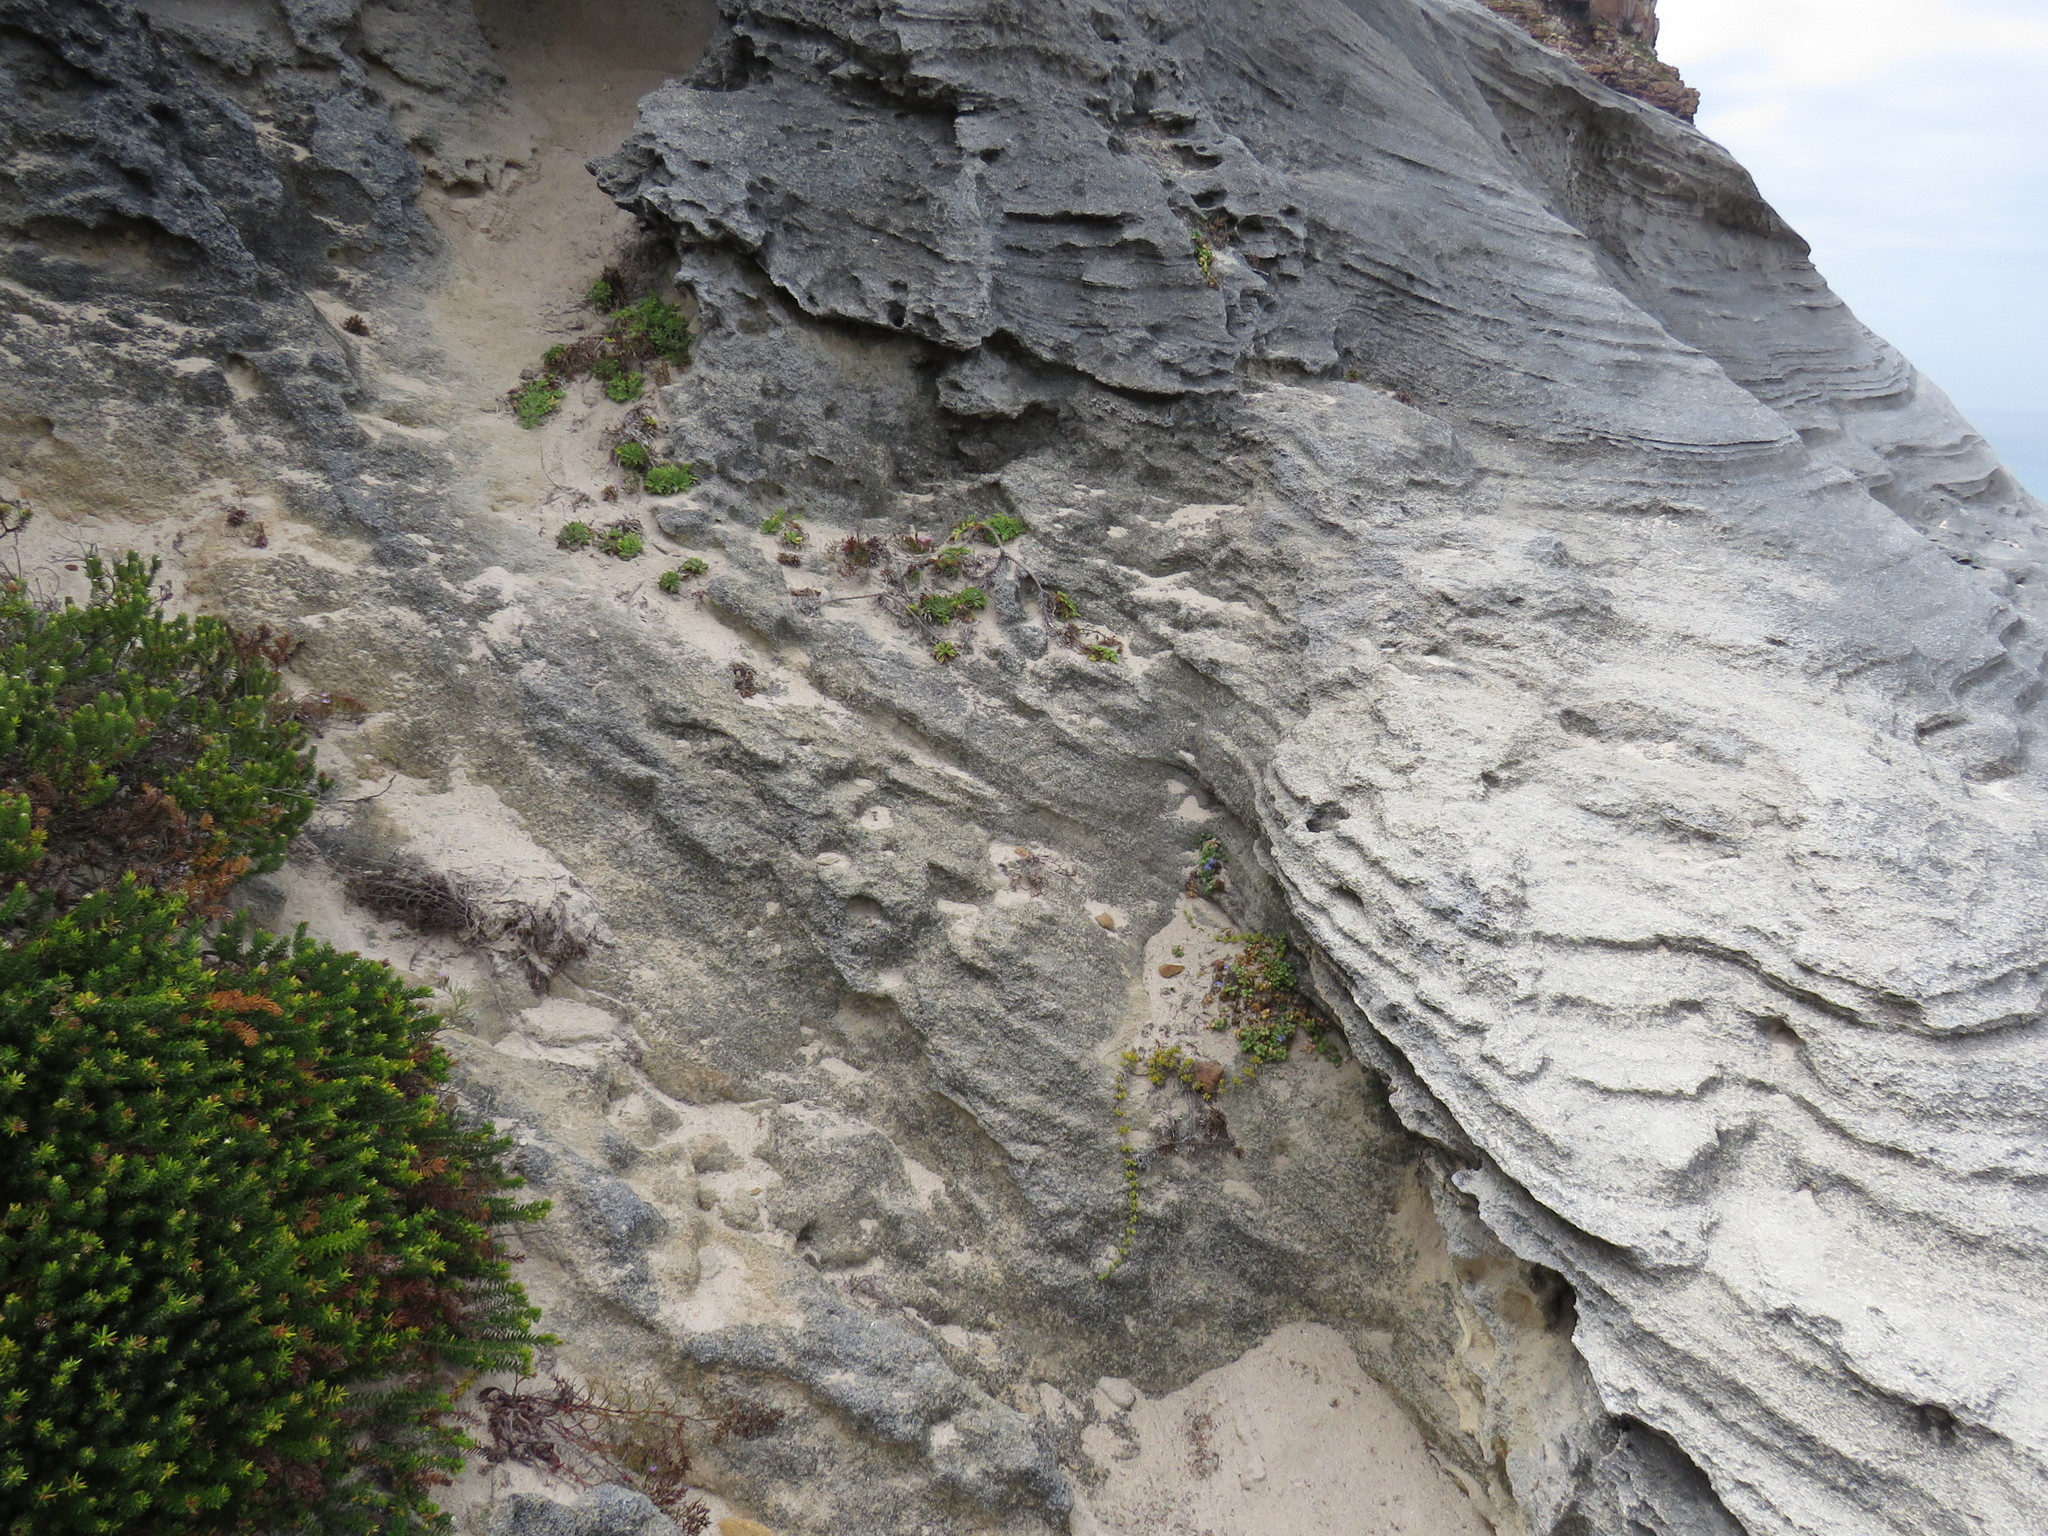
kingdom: Plantae
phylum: Tracheophyta
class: Magnoliopsida
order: Asterales
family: Campanulaceae
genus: Lobelia
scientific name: Lobelia boivinii
